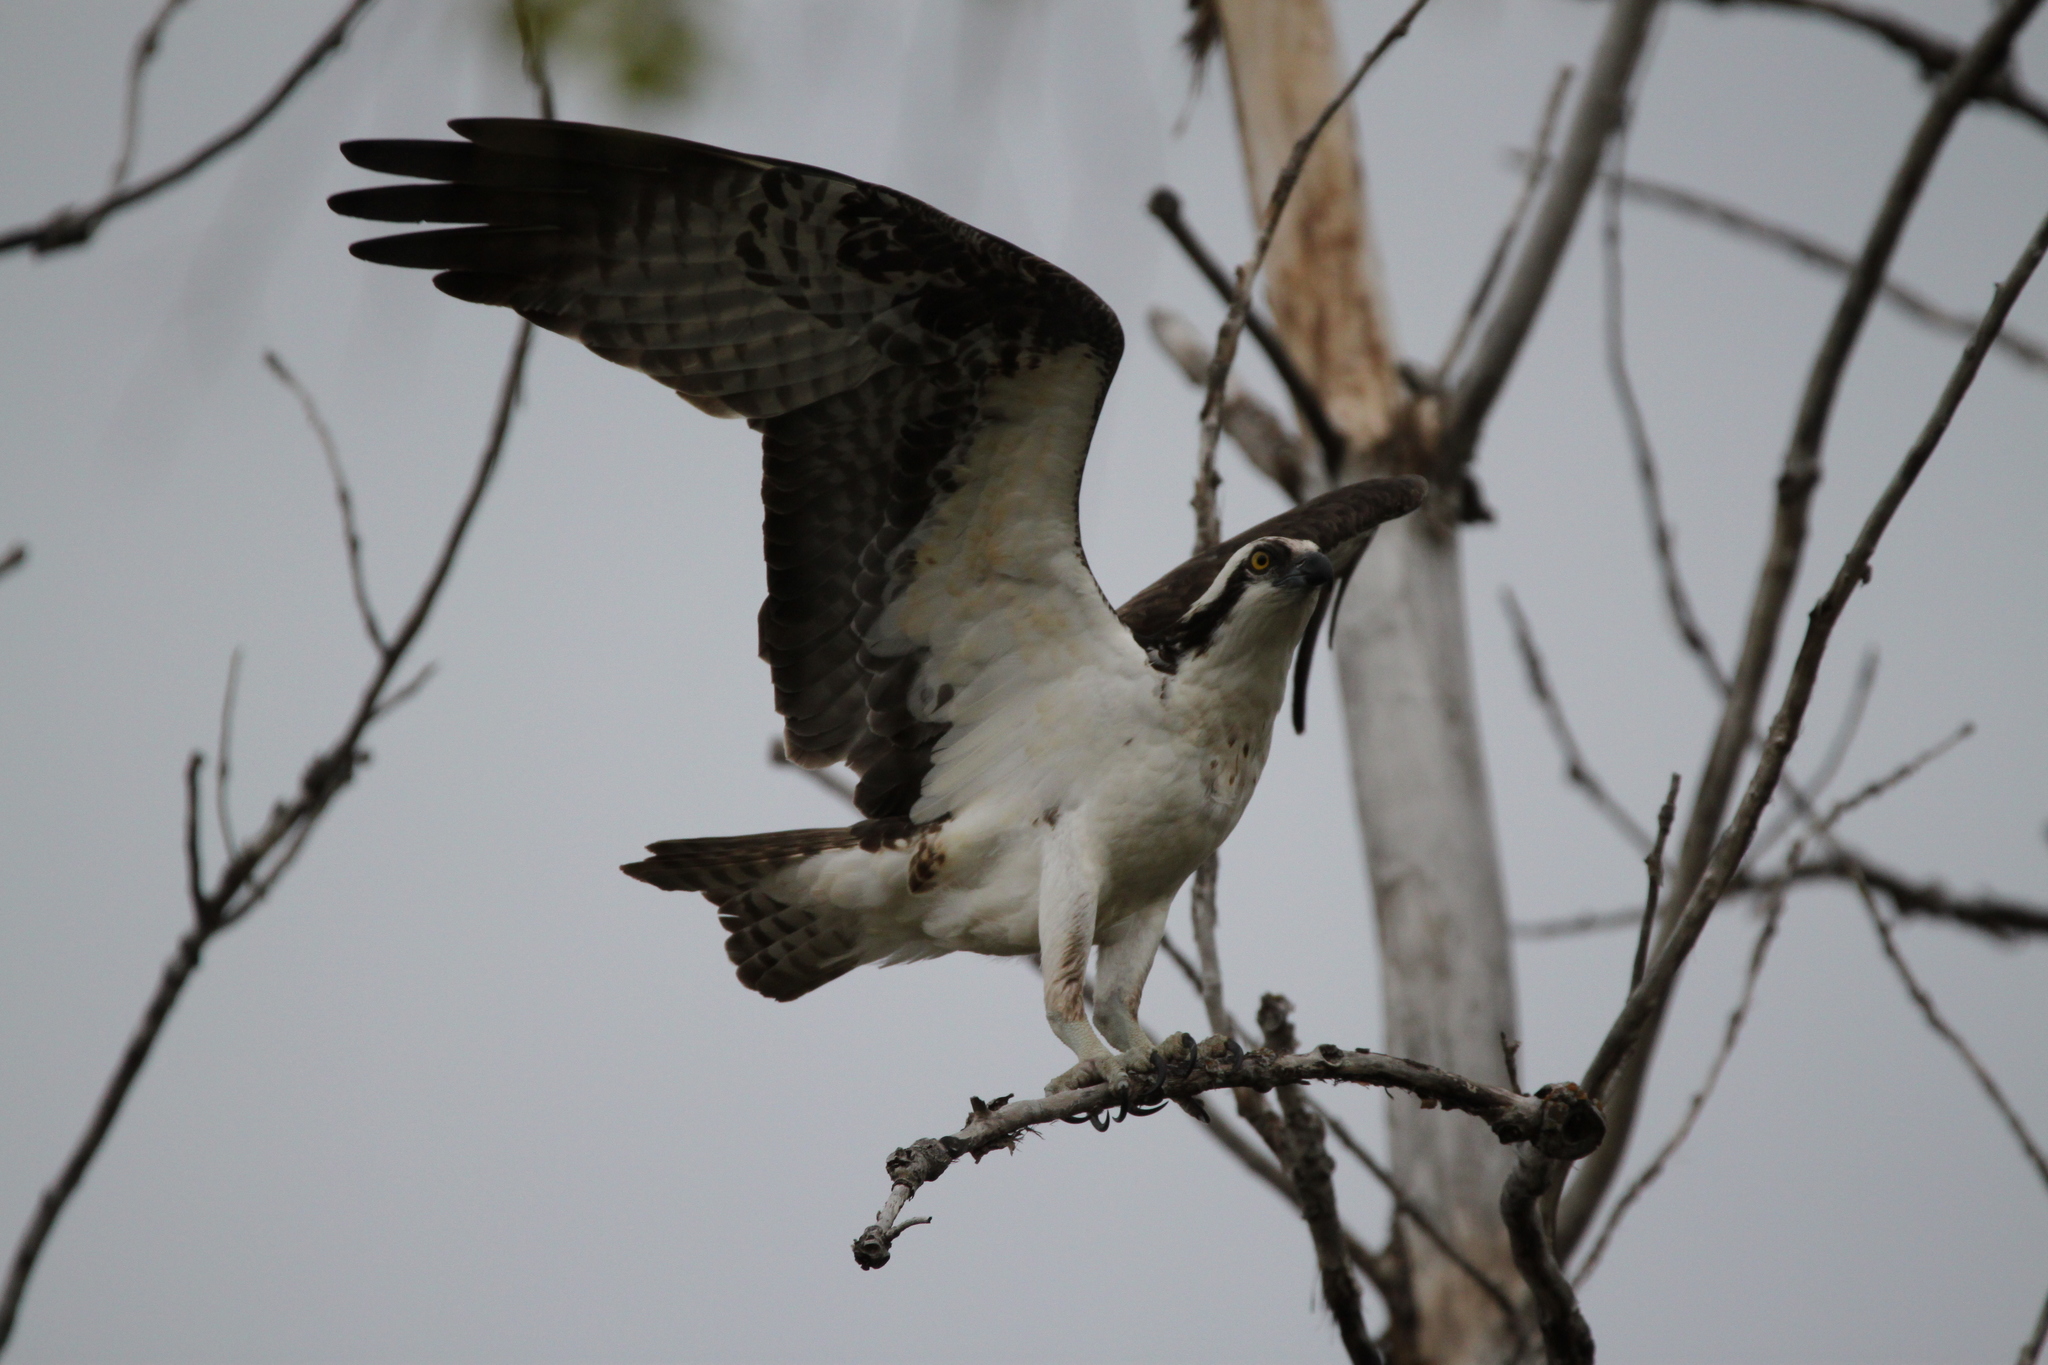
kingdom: Animalia
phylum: Chordata
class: Aves
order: Accipitriformes
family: Pandionidae
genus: Pandion
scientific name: Pandion haliaetus
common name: Osprey
